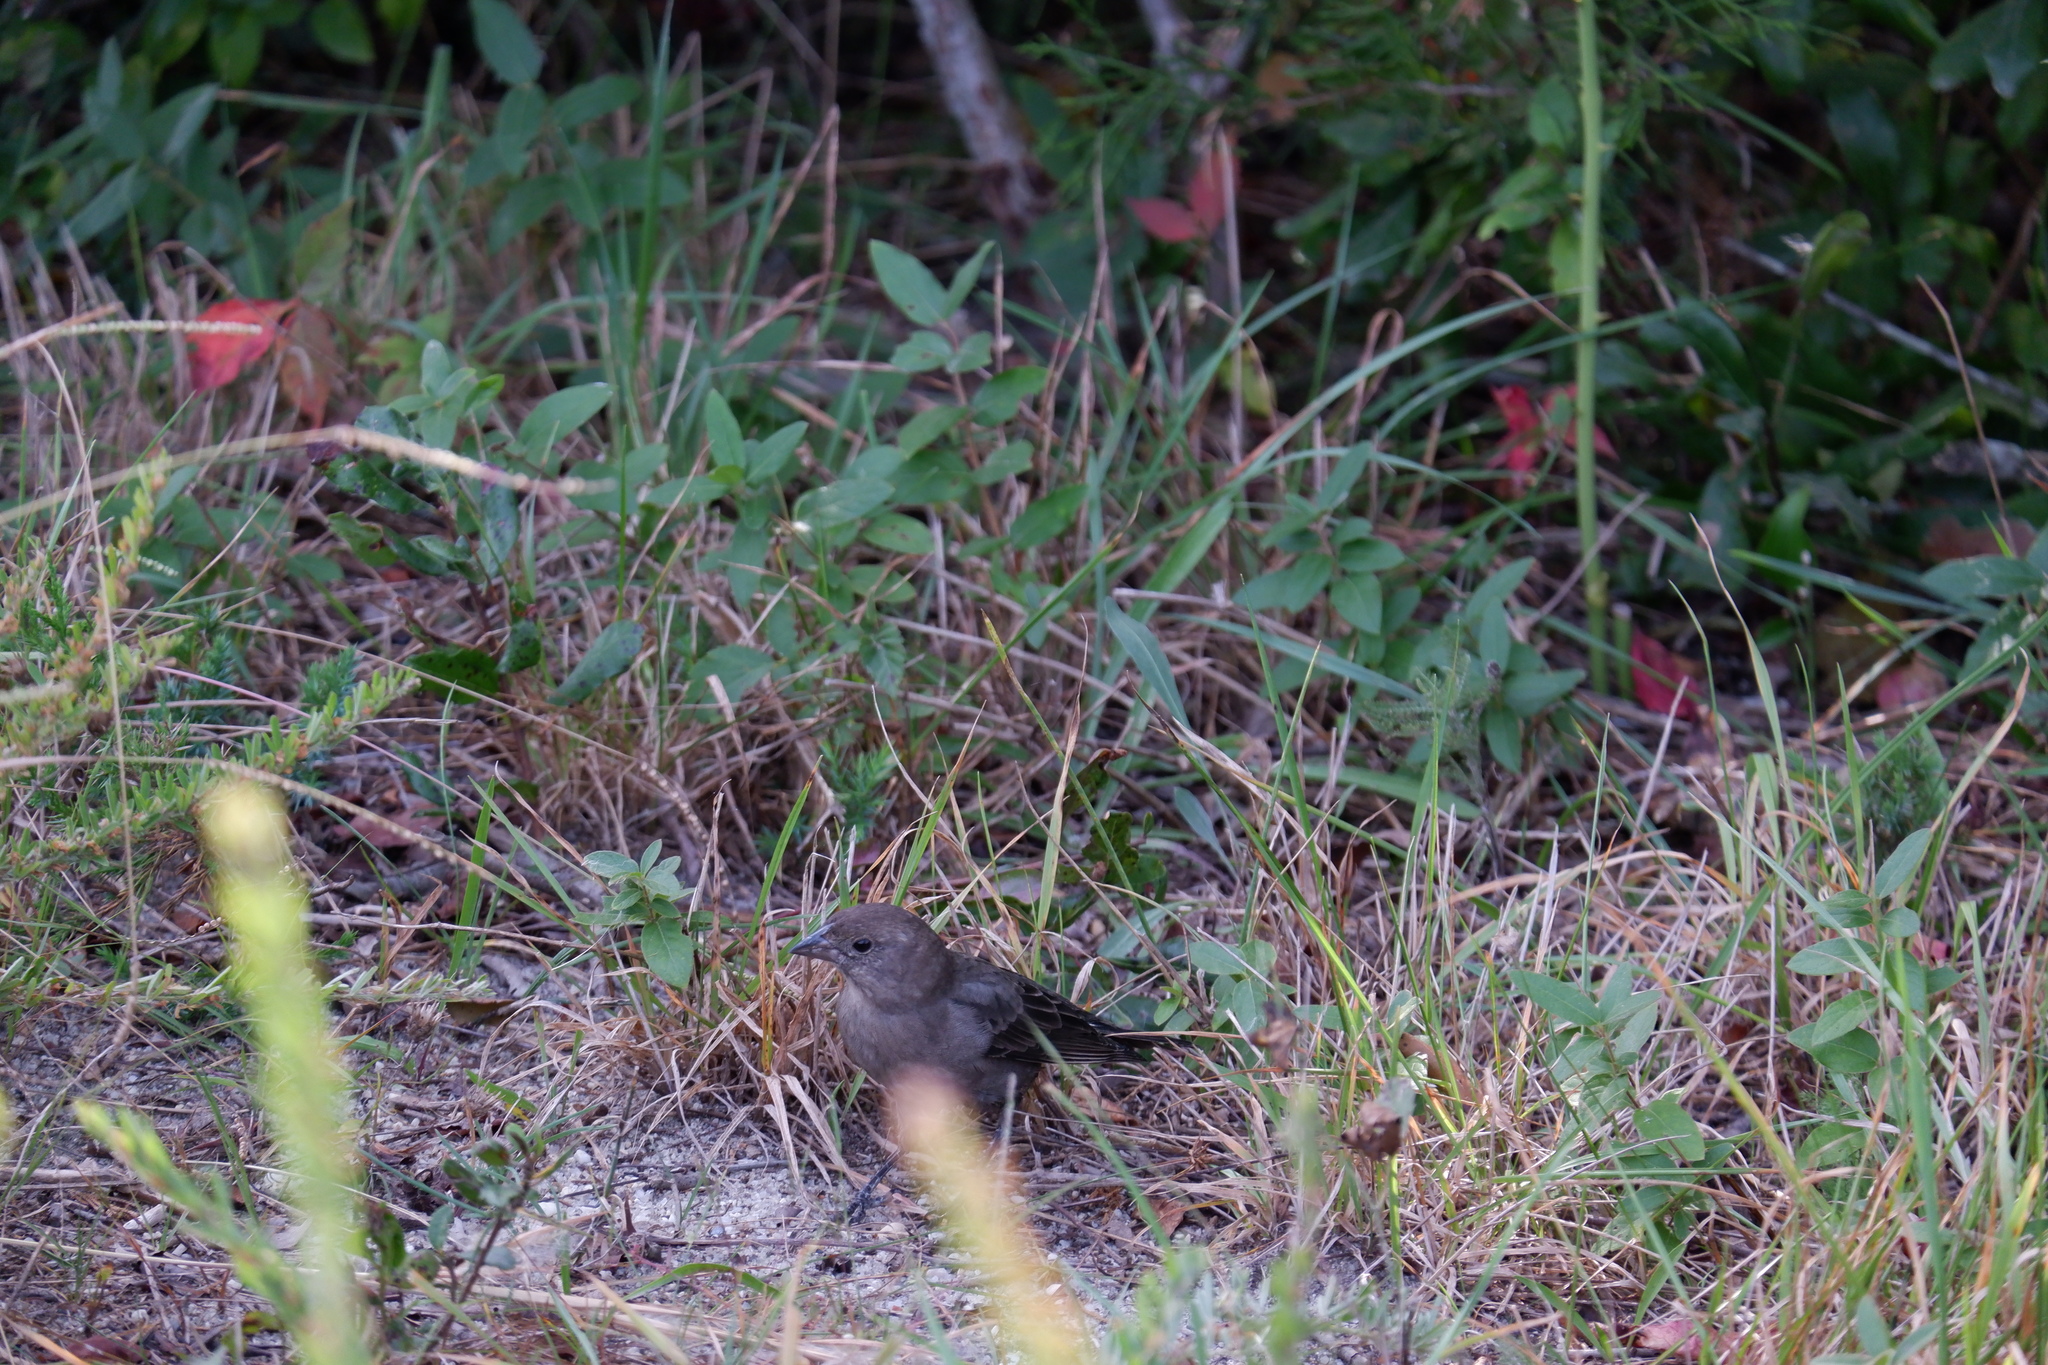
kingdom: Animalia
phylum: Chordata
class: Aves
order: Passeriformes
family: Icteridae
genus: Molothrus
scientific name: Molothrus ater
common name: Brown-headed cowbird
